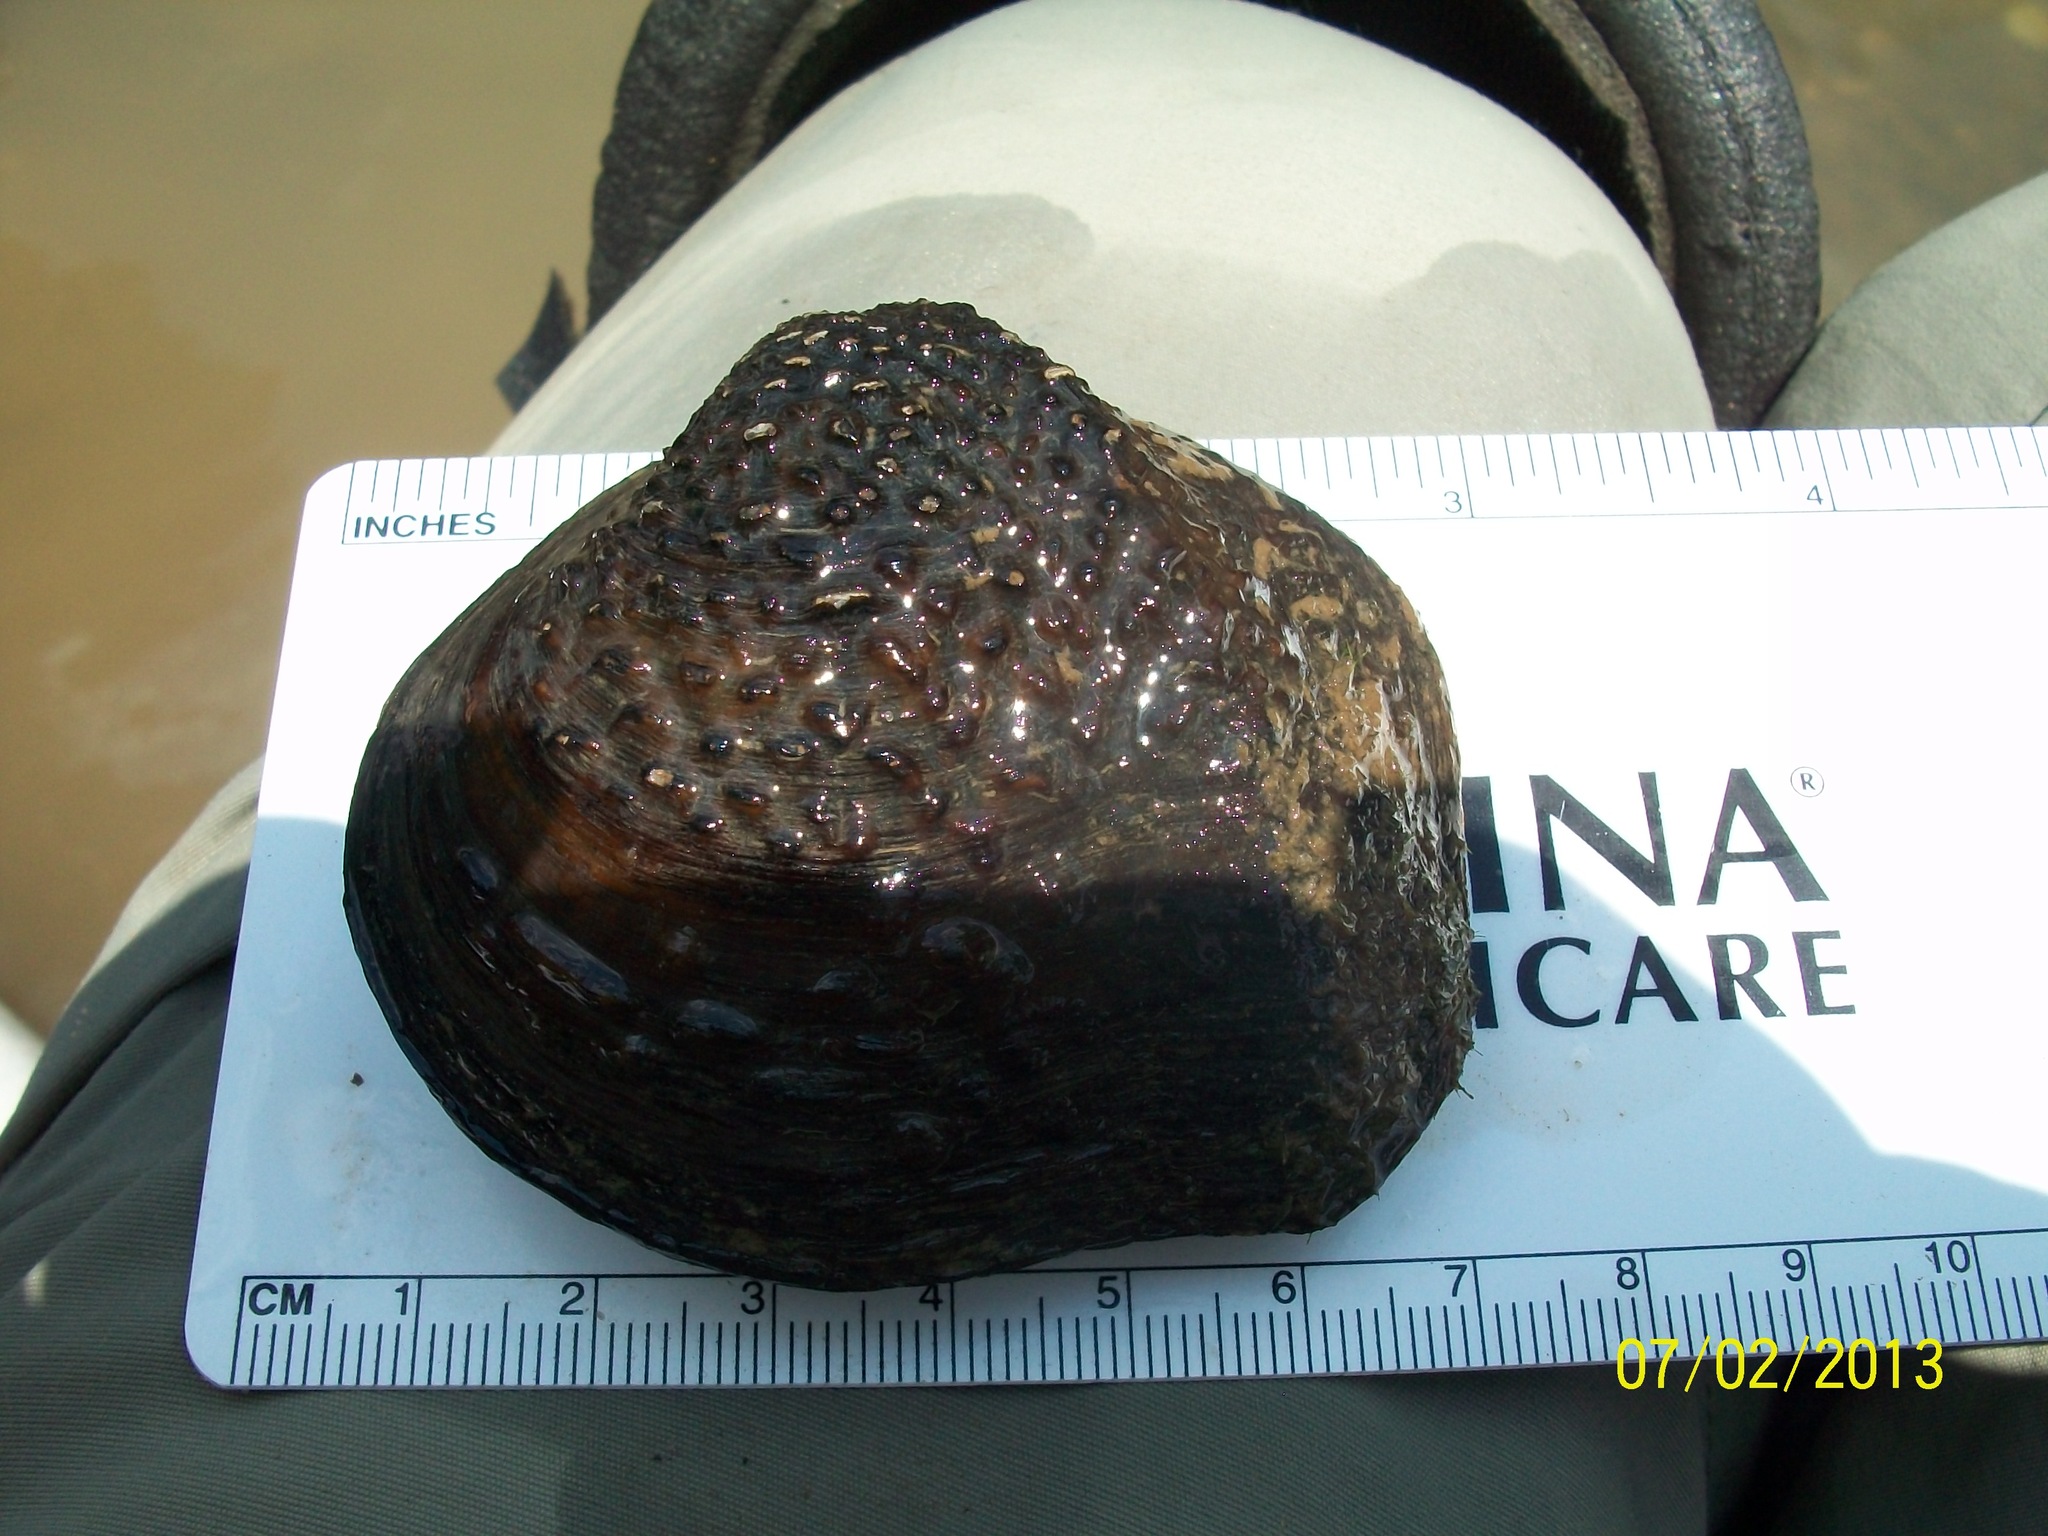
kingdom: Animalia
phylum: Mollusca
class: Bivalvia
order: Unionida
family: Unionidae
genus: Quadrula
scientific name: Quadrula quadrula
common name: Mapleleaf
